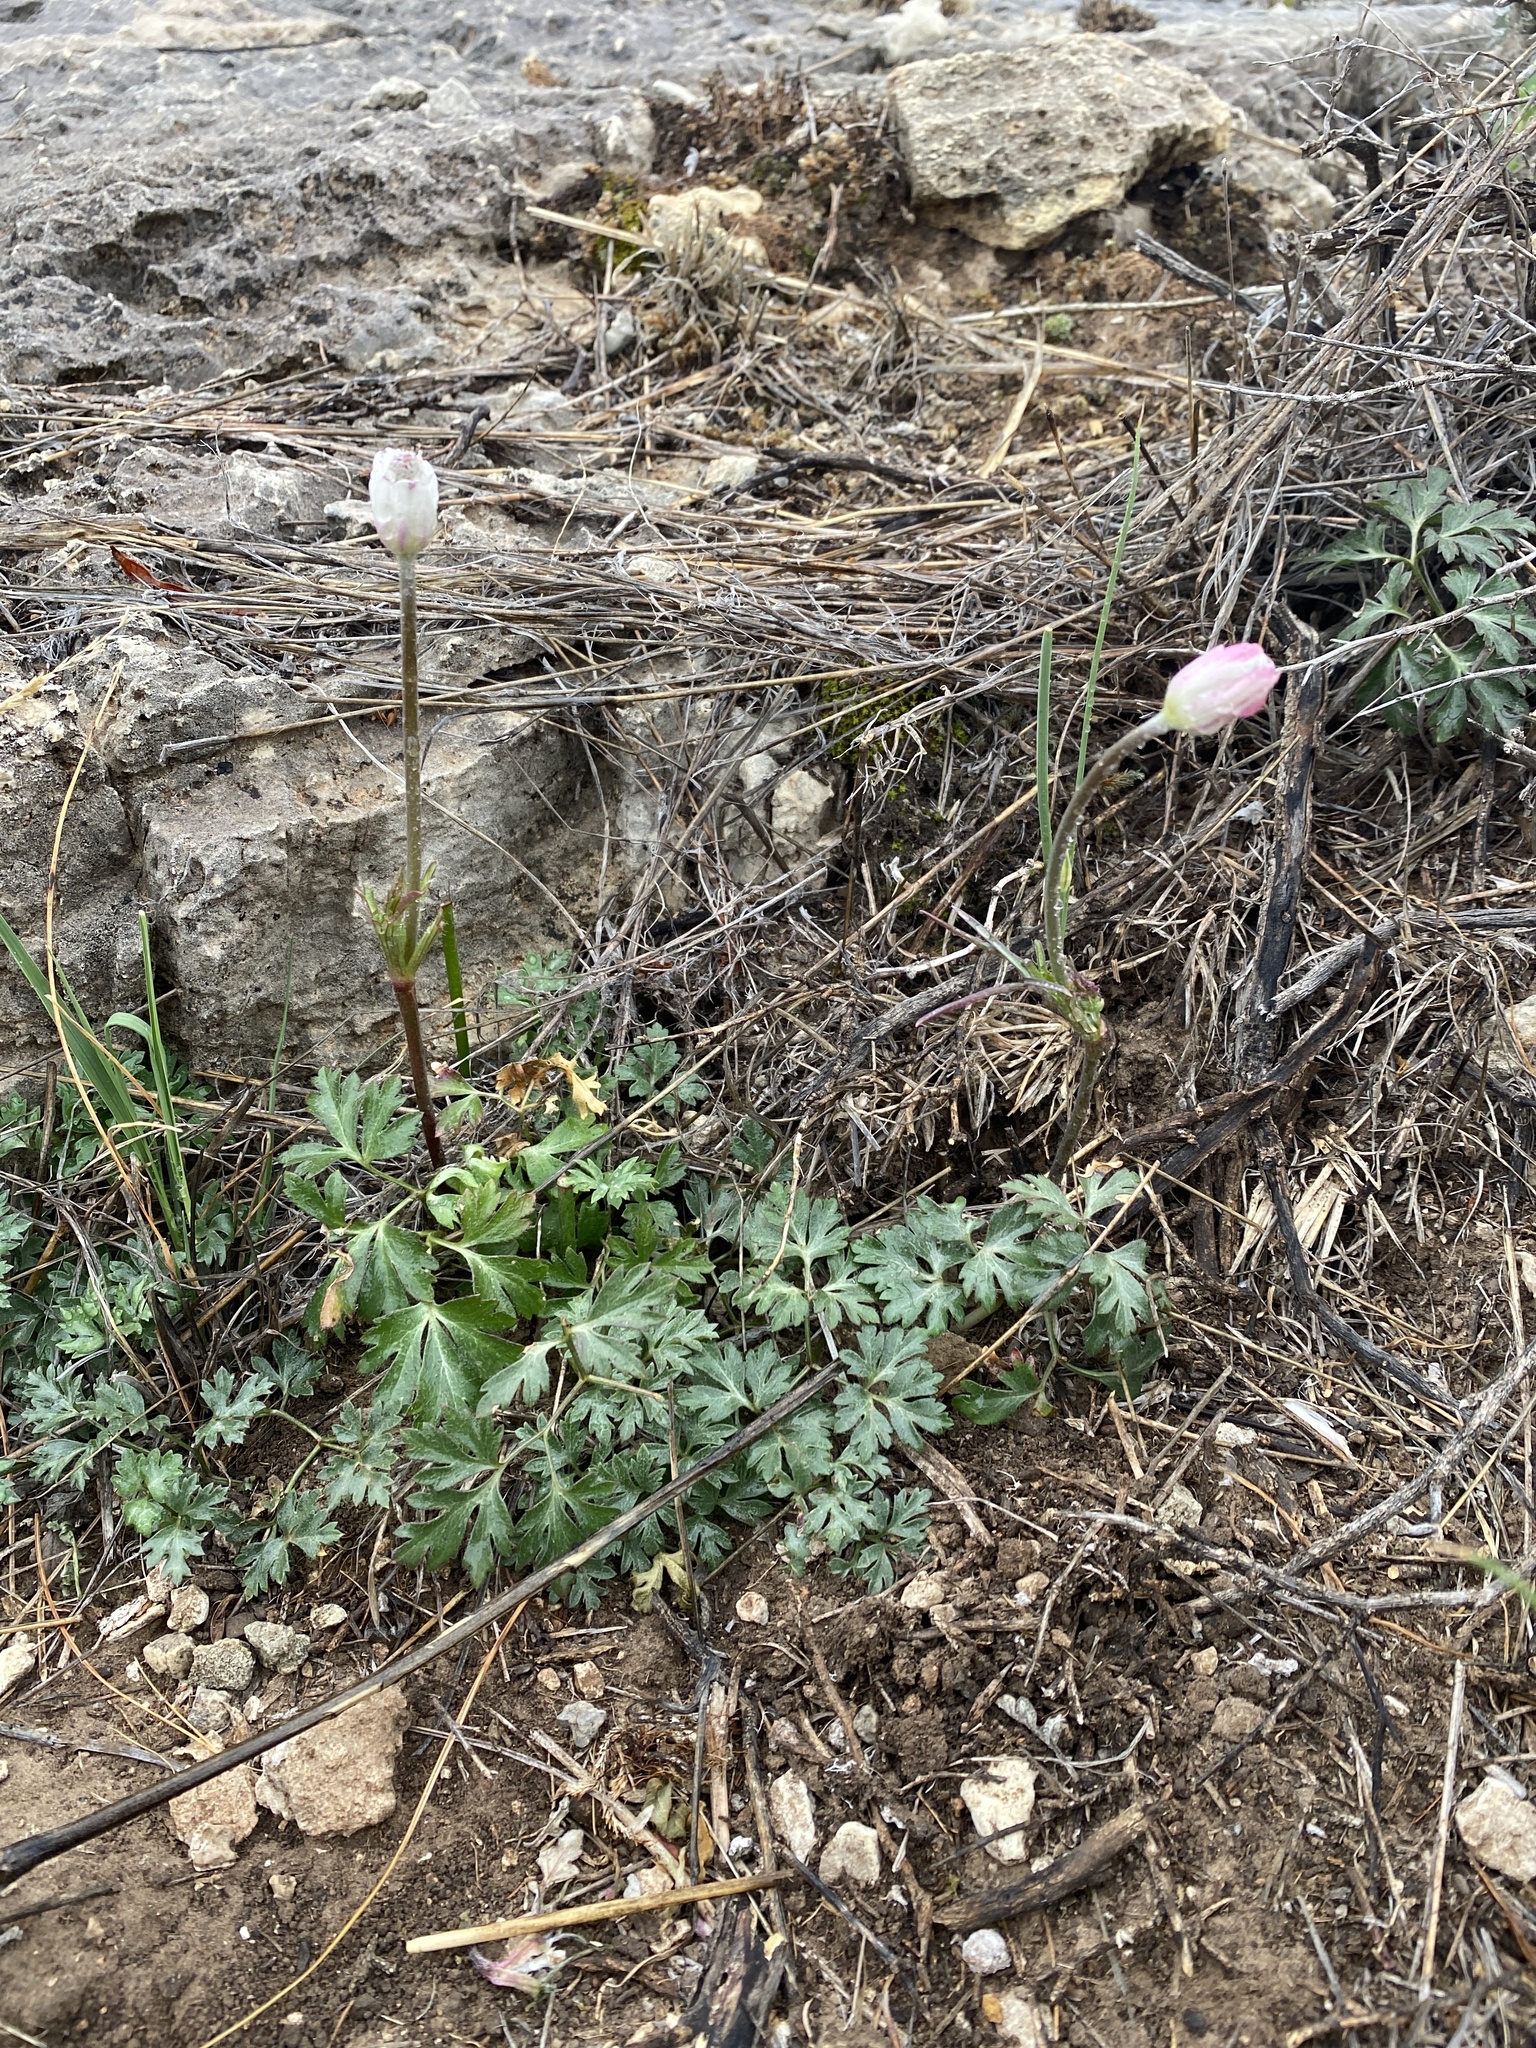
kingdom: Plantae
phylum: Tracheophyta
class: Magnoliopsida
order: Ranunculales
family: Ranunculaceae
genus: Anemone
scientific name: Anemone tuberosa
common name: Desert anemone
